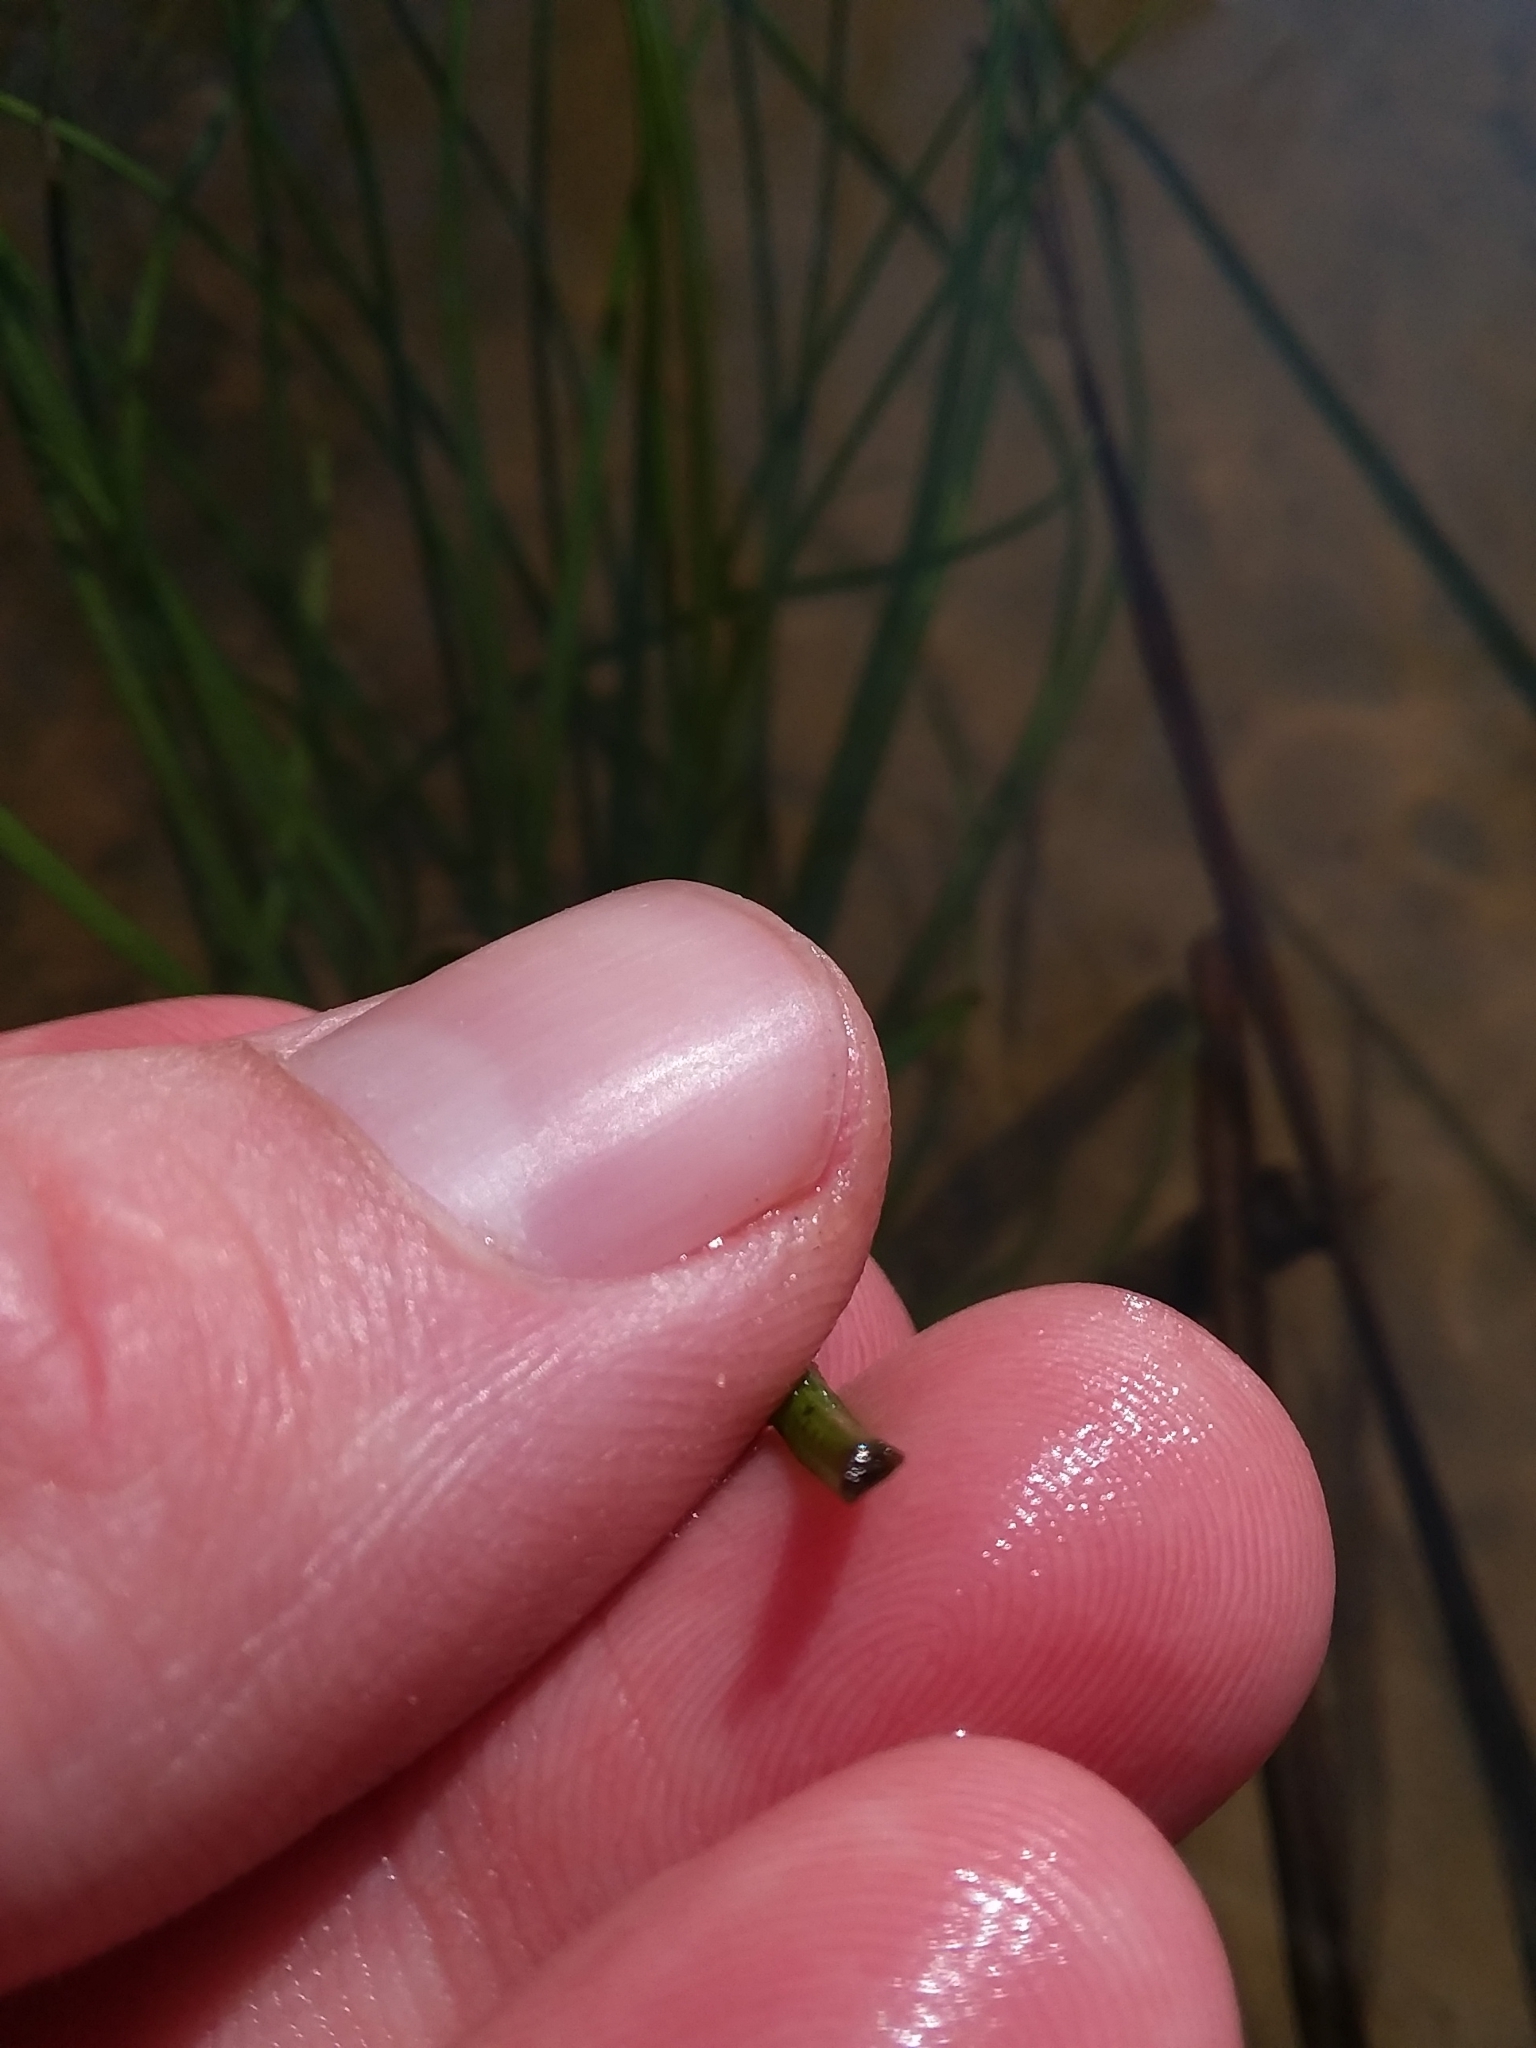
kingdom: Plantae
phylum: Tracheophyta
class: Lycopodiopsida
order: Isoetales
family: Isoetaceae
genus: Isoetes
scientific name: Isoetes louisianensis
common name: Lousiana quillwort
